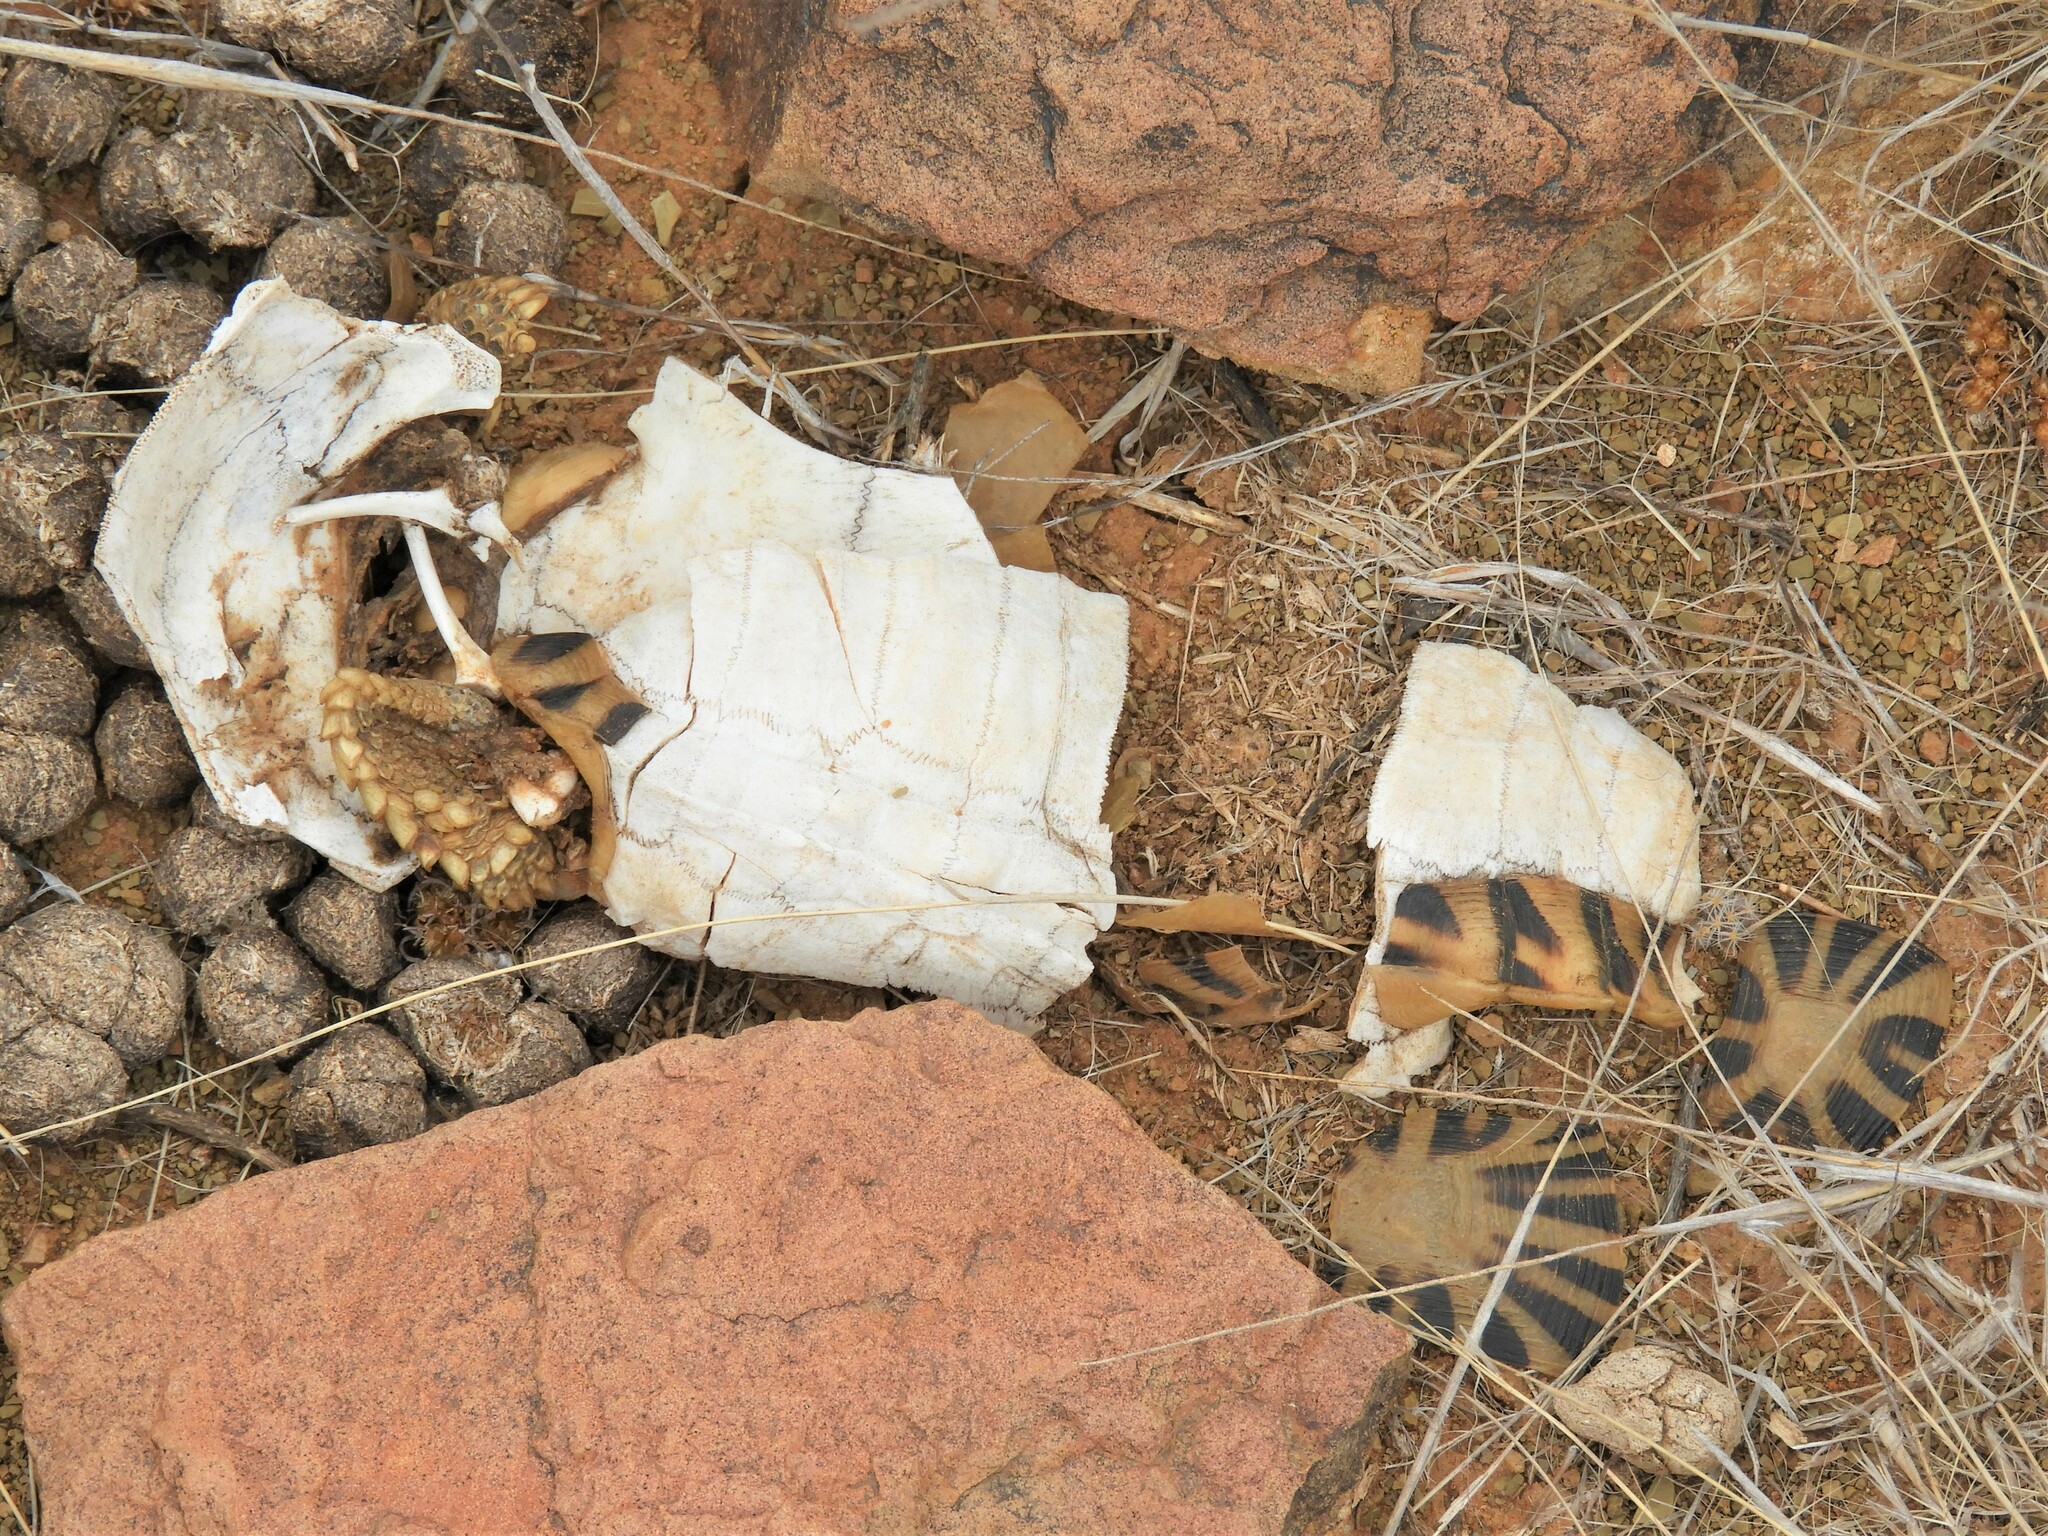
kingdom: Animalia
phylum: Chordata
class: Testudines
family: Testudinidae
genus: Psammobates
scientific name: Psammobates tentorius
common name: Tent tortoise
